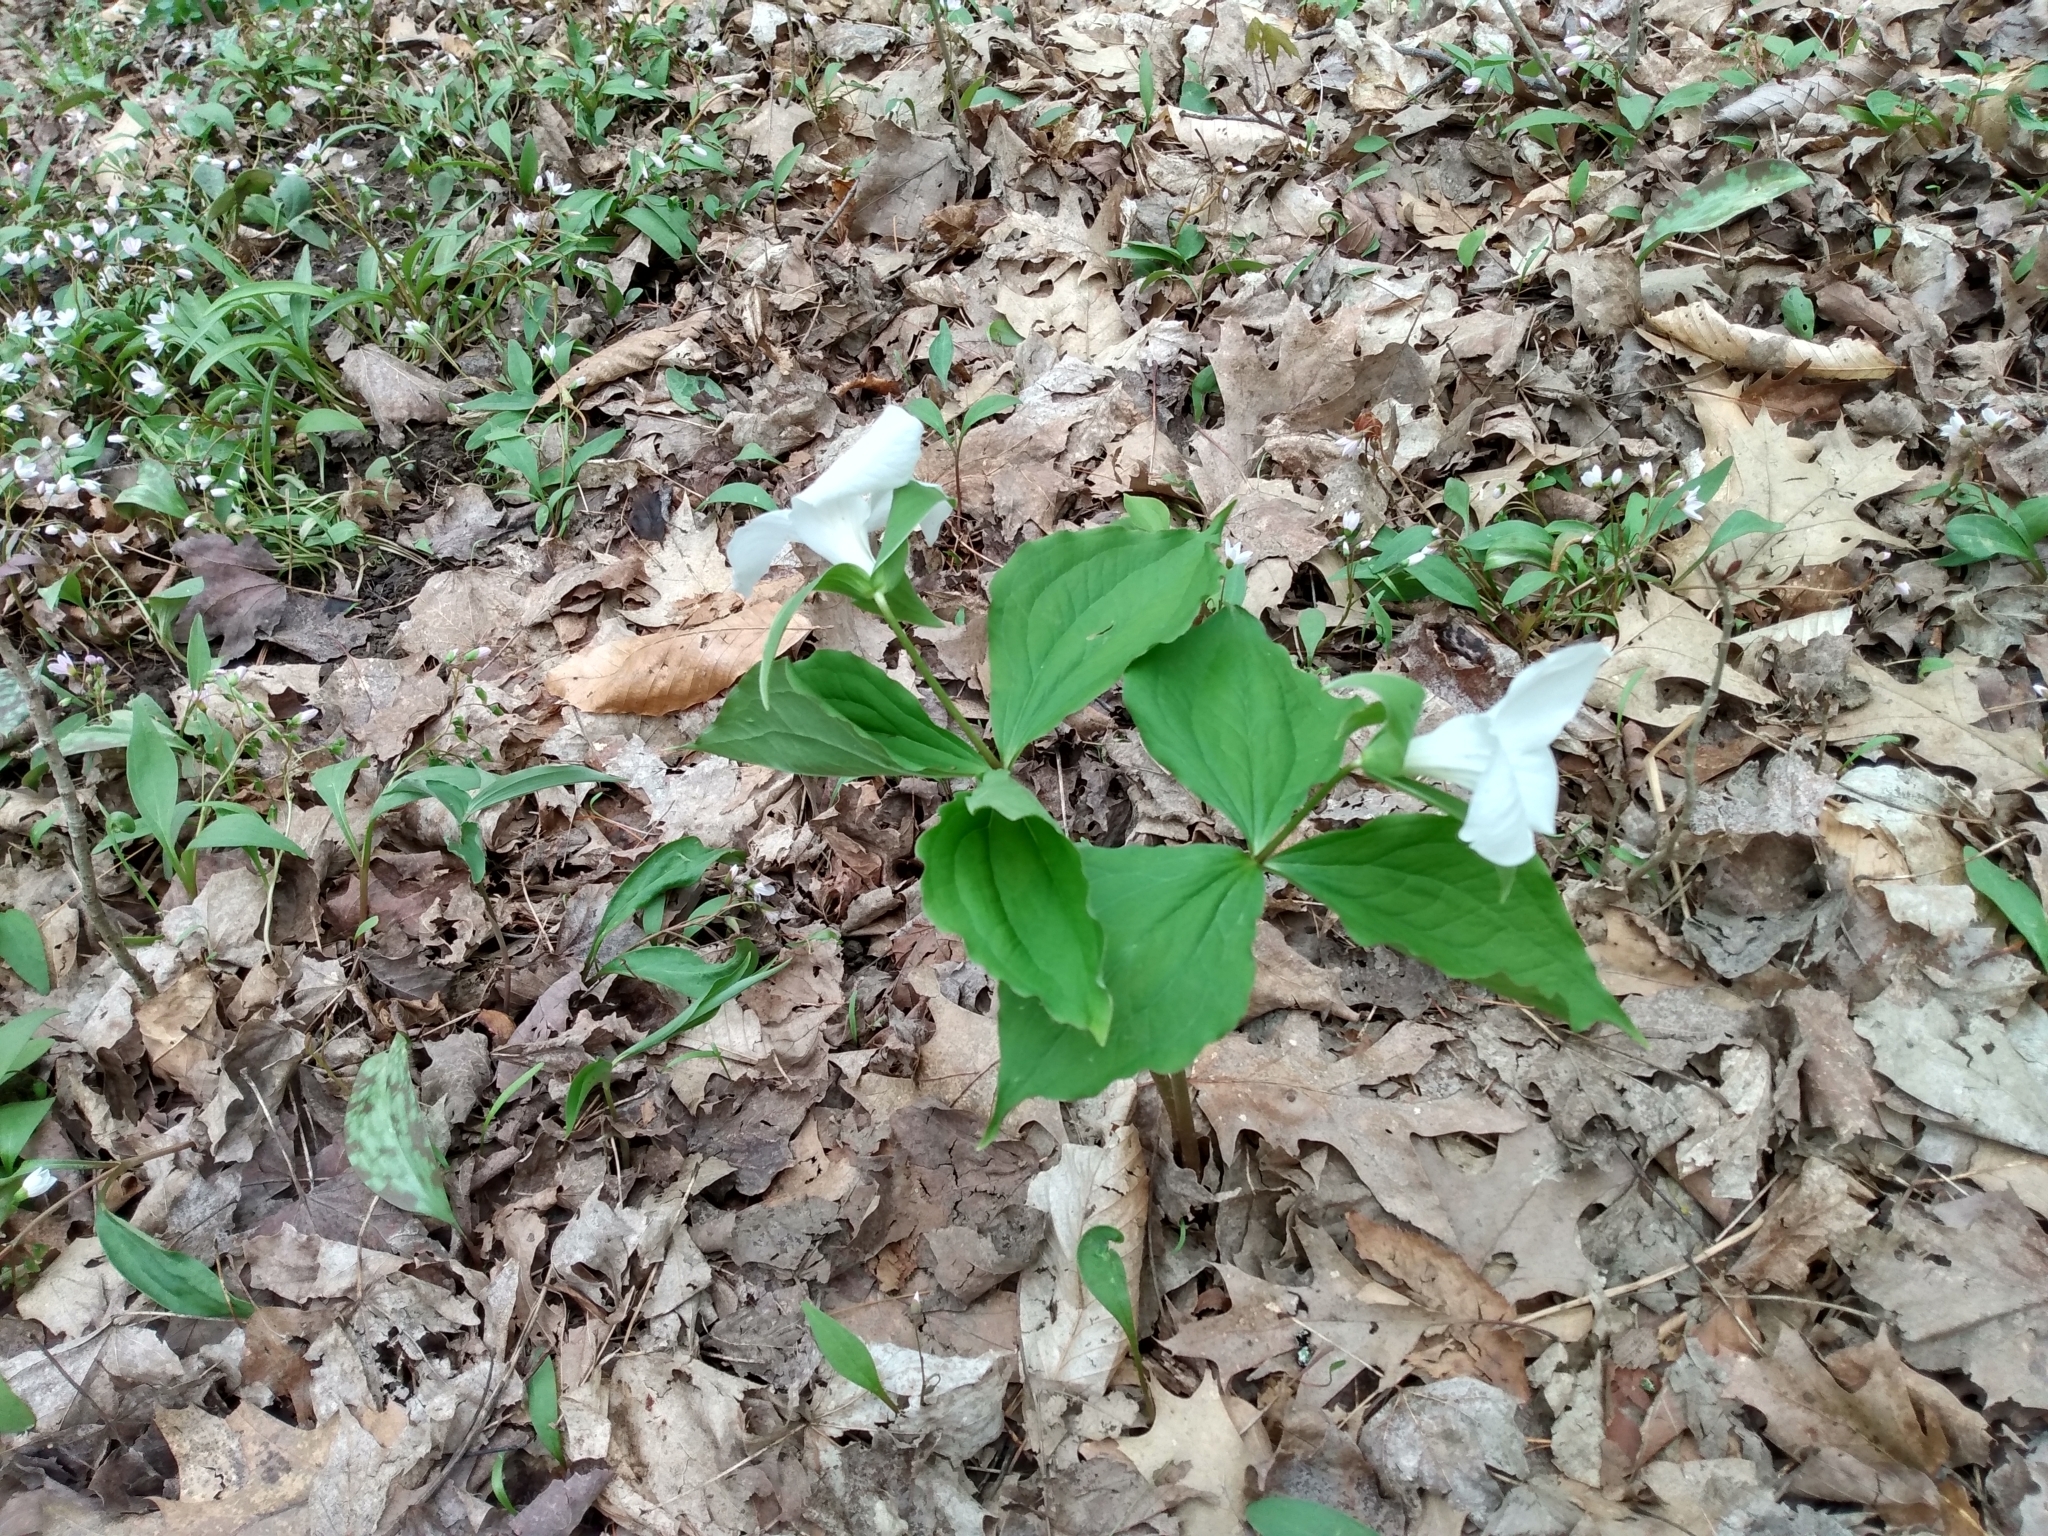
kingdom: Plantae
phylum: Tracheophyta
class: Liliopsida
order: Liliales
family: Melanthiaceae
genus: Trillium
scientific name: Trillium grandiflorum
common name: Great white trillium
